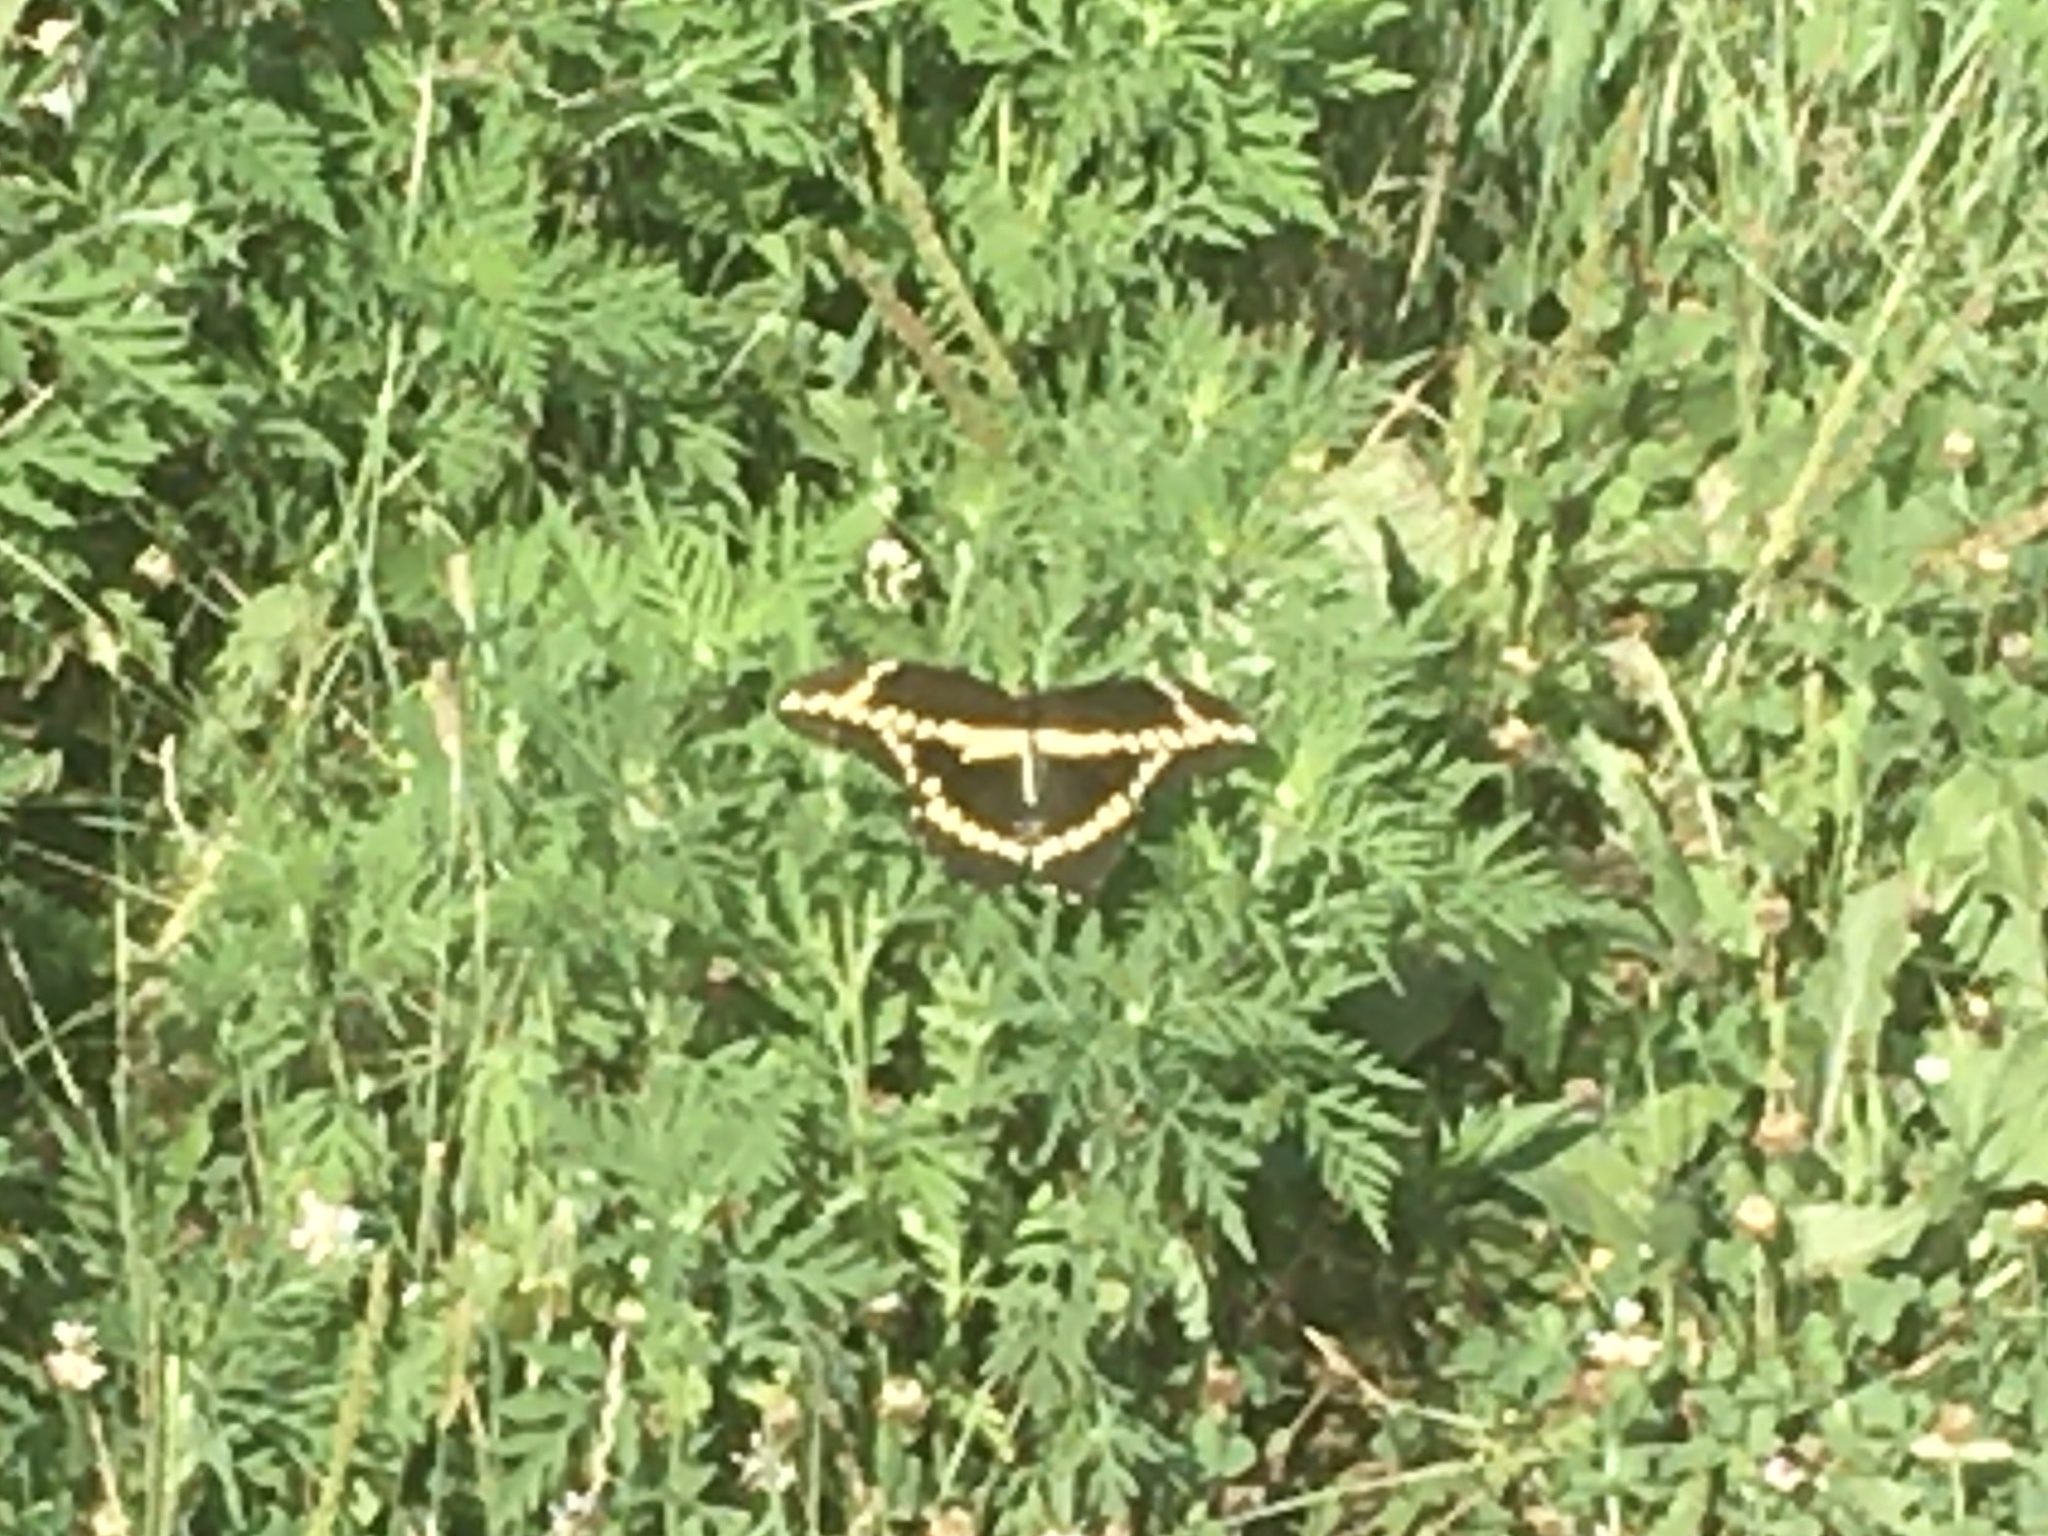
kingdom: Animalia
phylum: Arthropoda
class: Insecta
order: Lepidoptera
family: Papilionidae
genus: Papilio
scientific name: Papilio cresphontes
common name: Giant swallowtail
